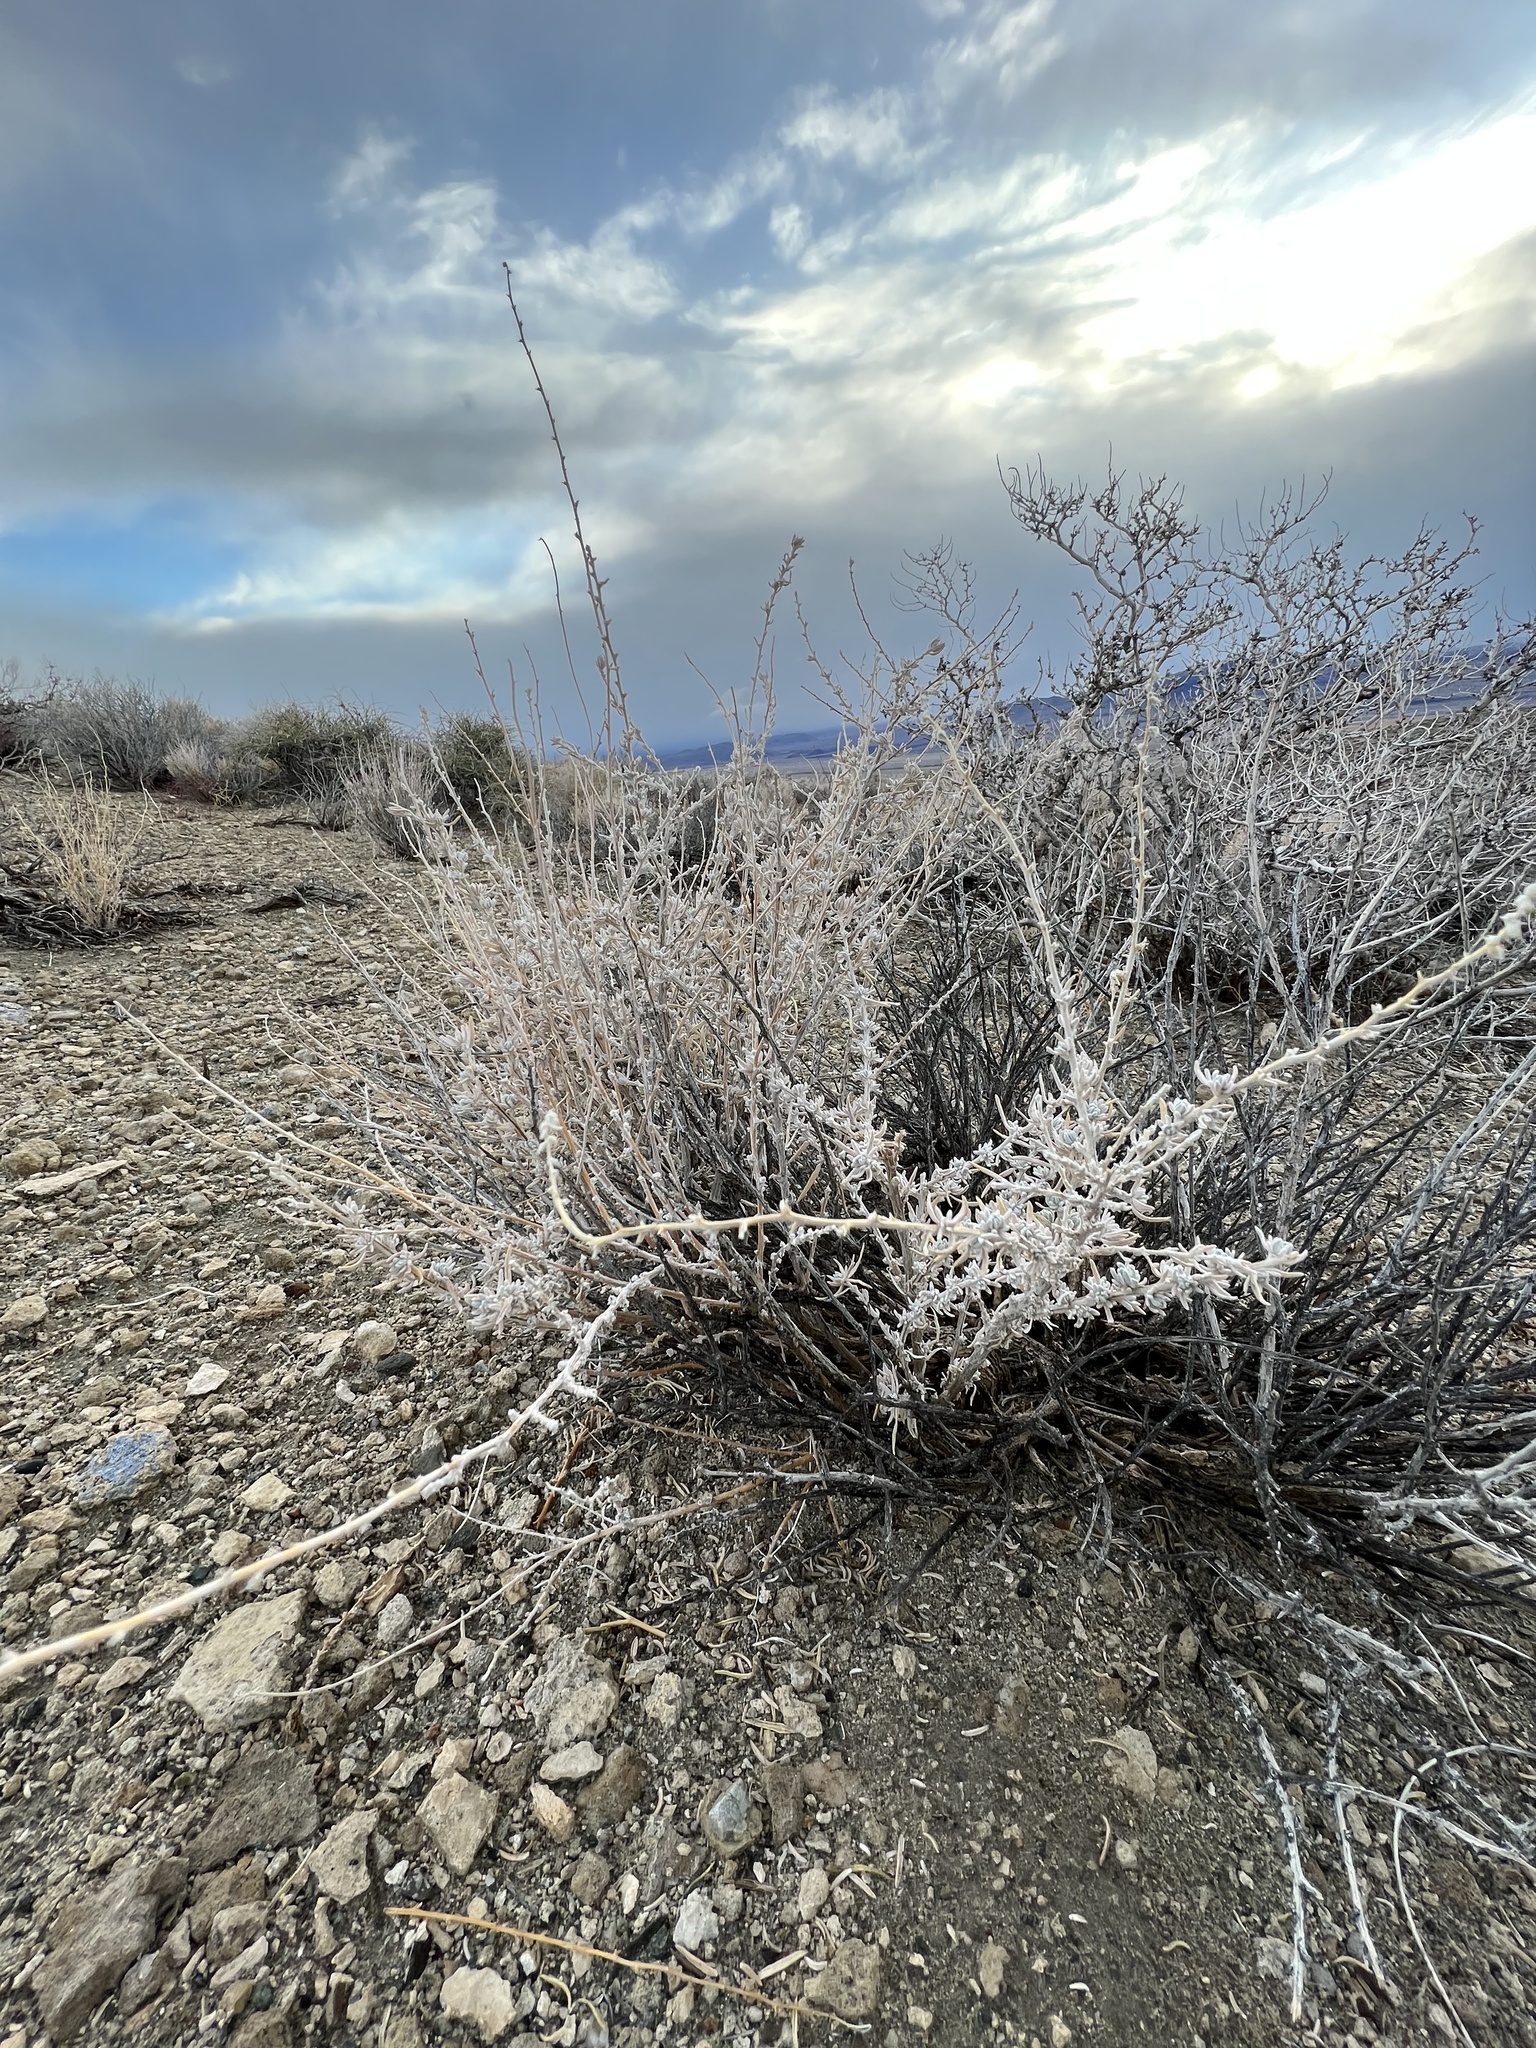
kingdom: Plantae
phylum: Tracheophyta
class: Magnoliopsida
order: Caryophyllales
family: Amaranthaceae
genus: Krascheninnikovia
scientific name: Krascheninnikovia lanata
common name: Winterfat
